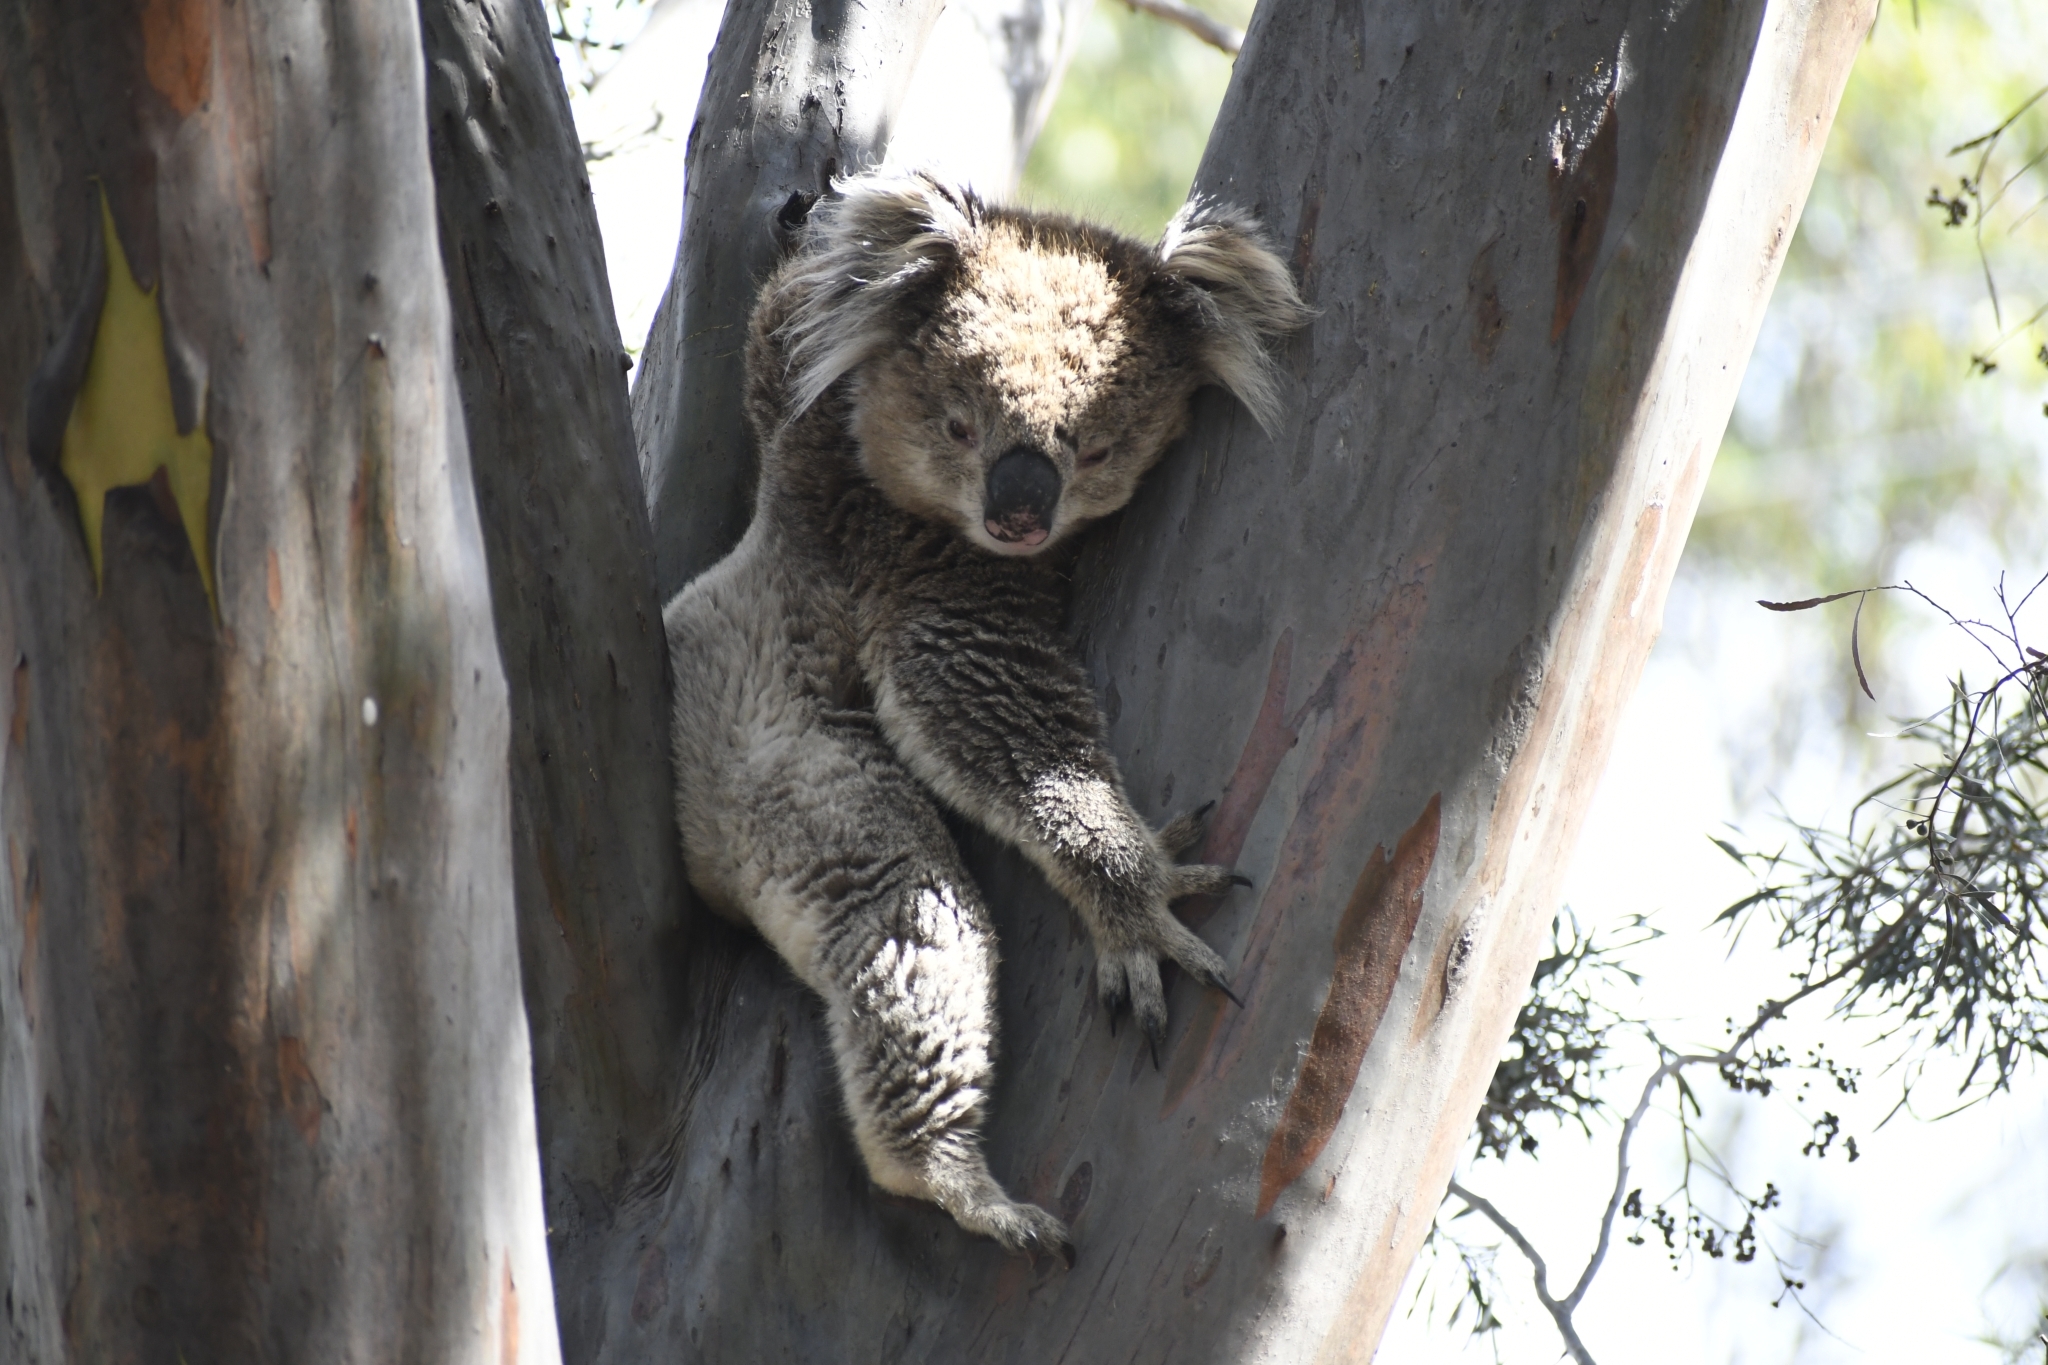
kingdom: Animalia
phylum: Chordata
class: Mammalia
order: Diprotodontia
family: Phascolarctidae
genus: Phascolarctos
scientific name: Phascolarctos cinereus
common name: Koala
